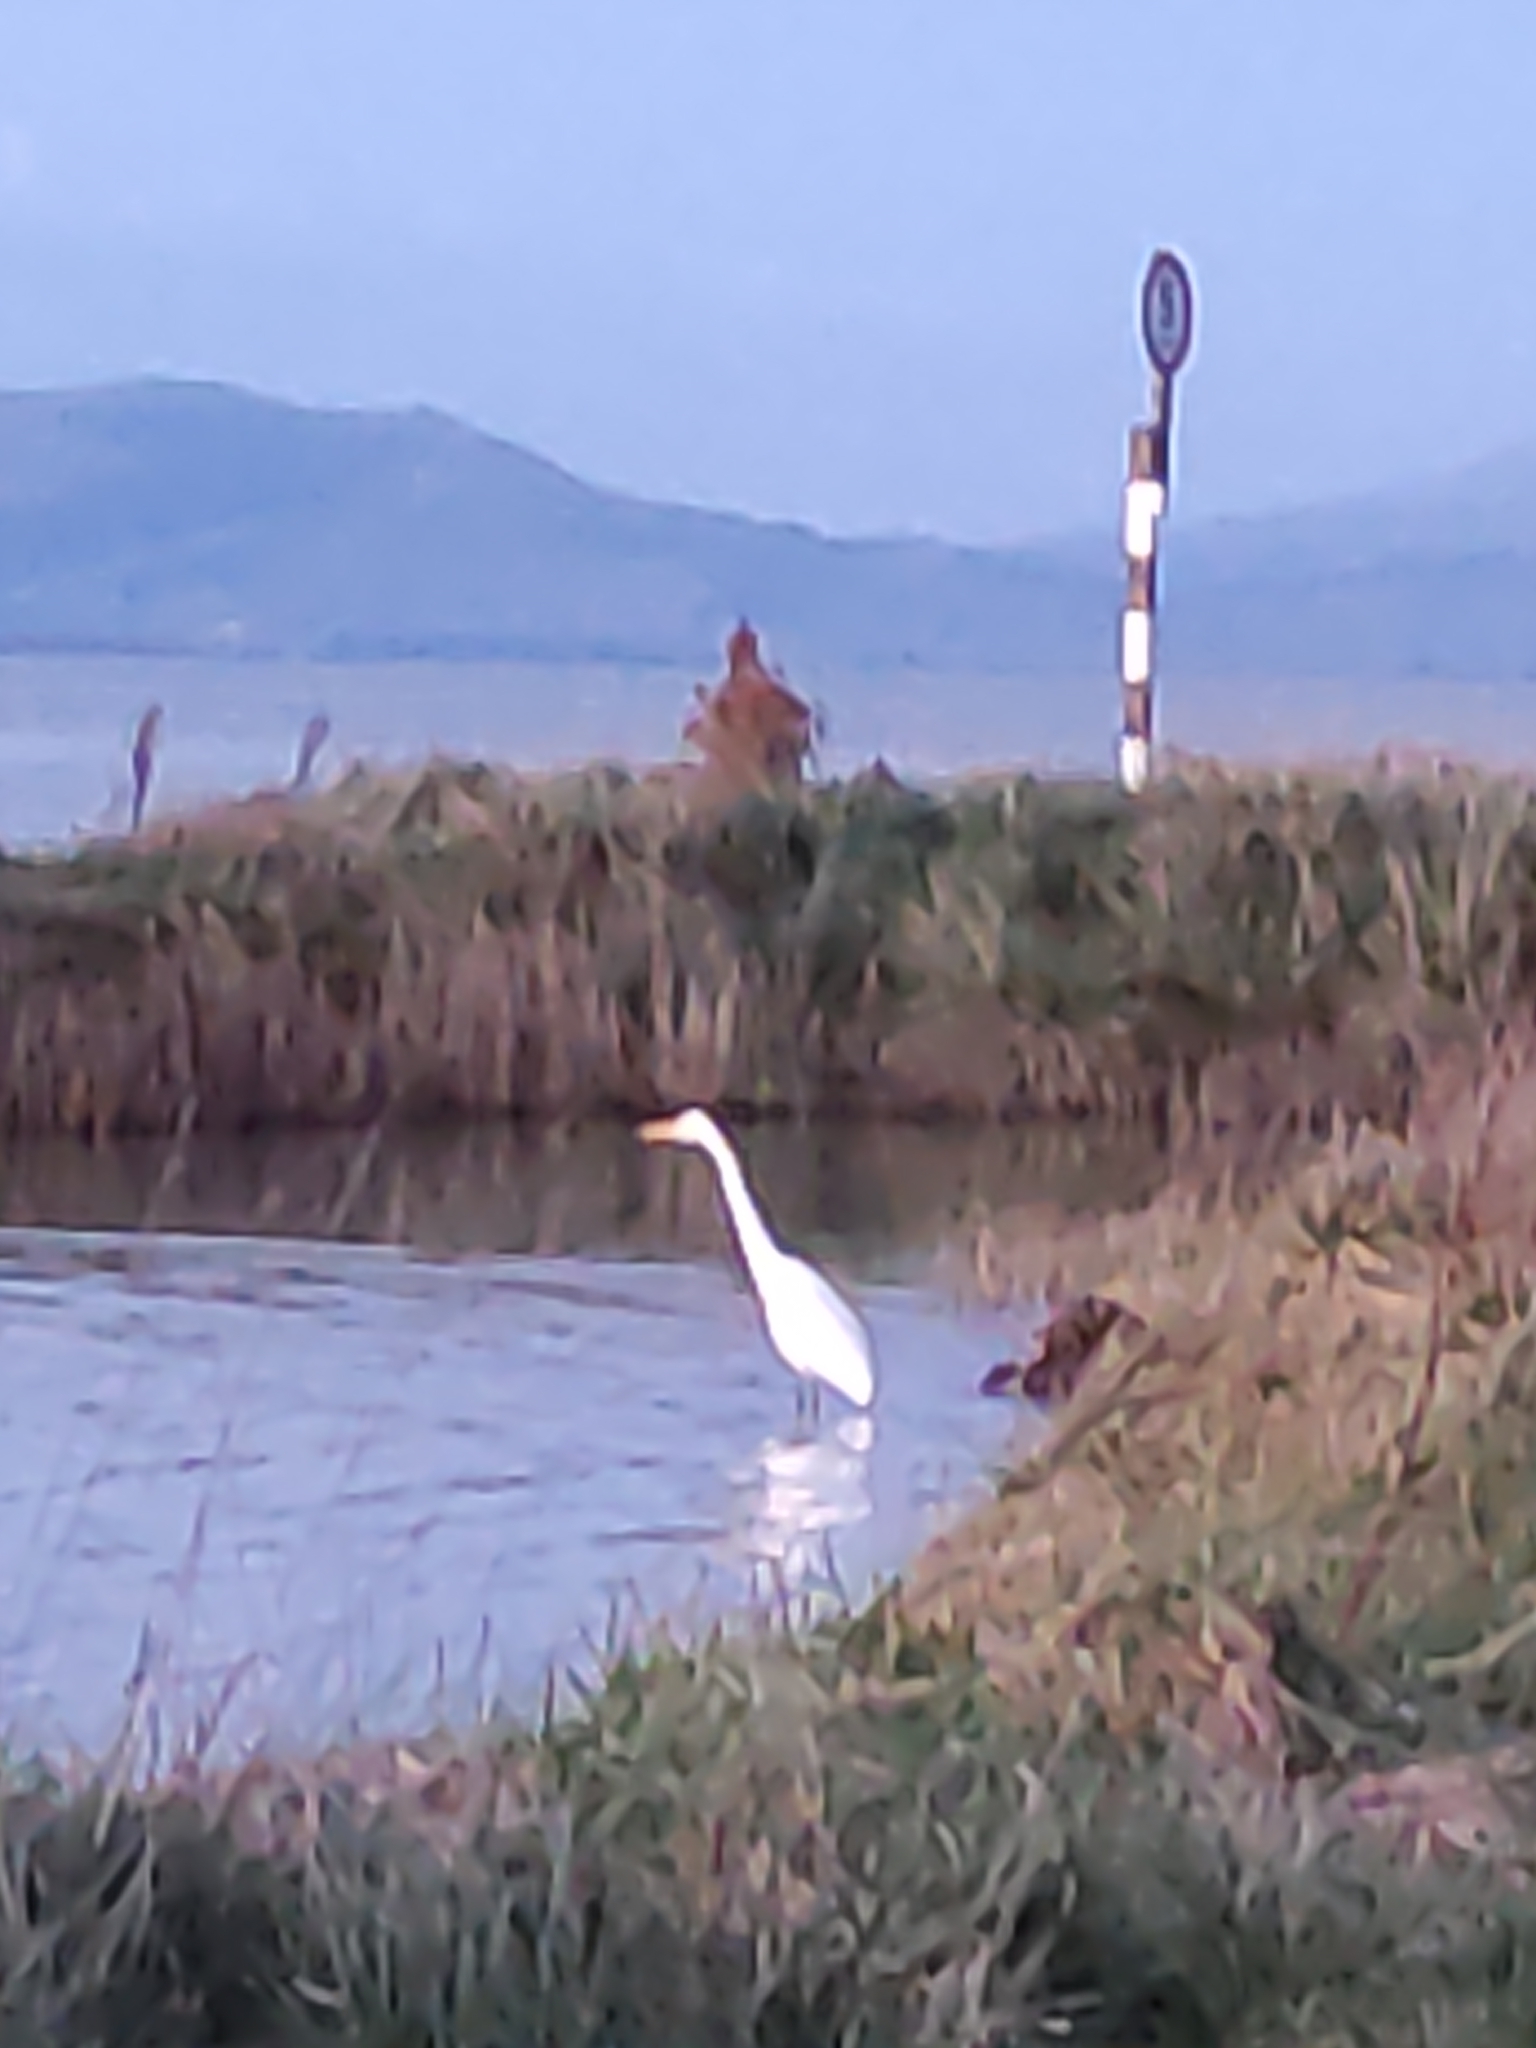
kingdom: Animalia
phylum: Chordata
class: Aves
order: Pelecaniformes
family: Ardeidae
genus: Ardea
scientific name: Ardea modesta
